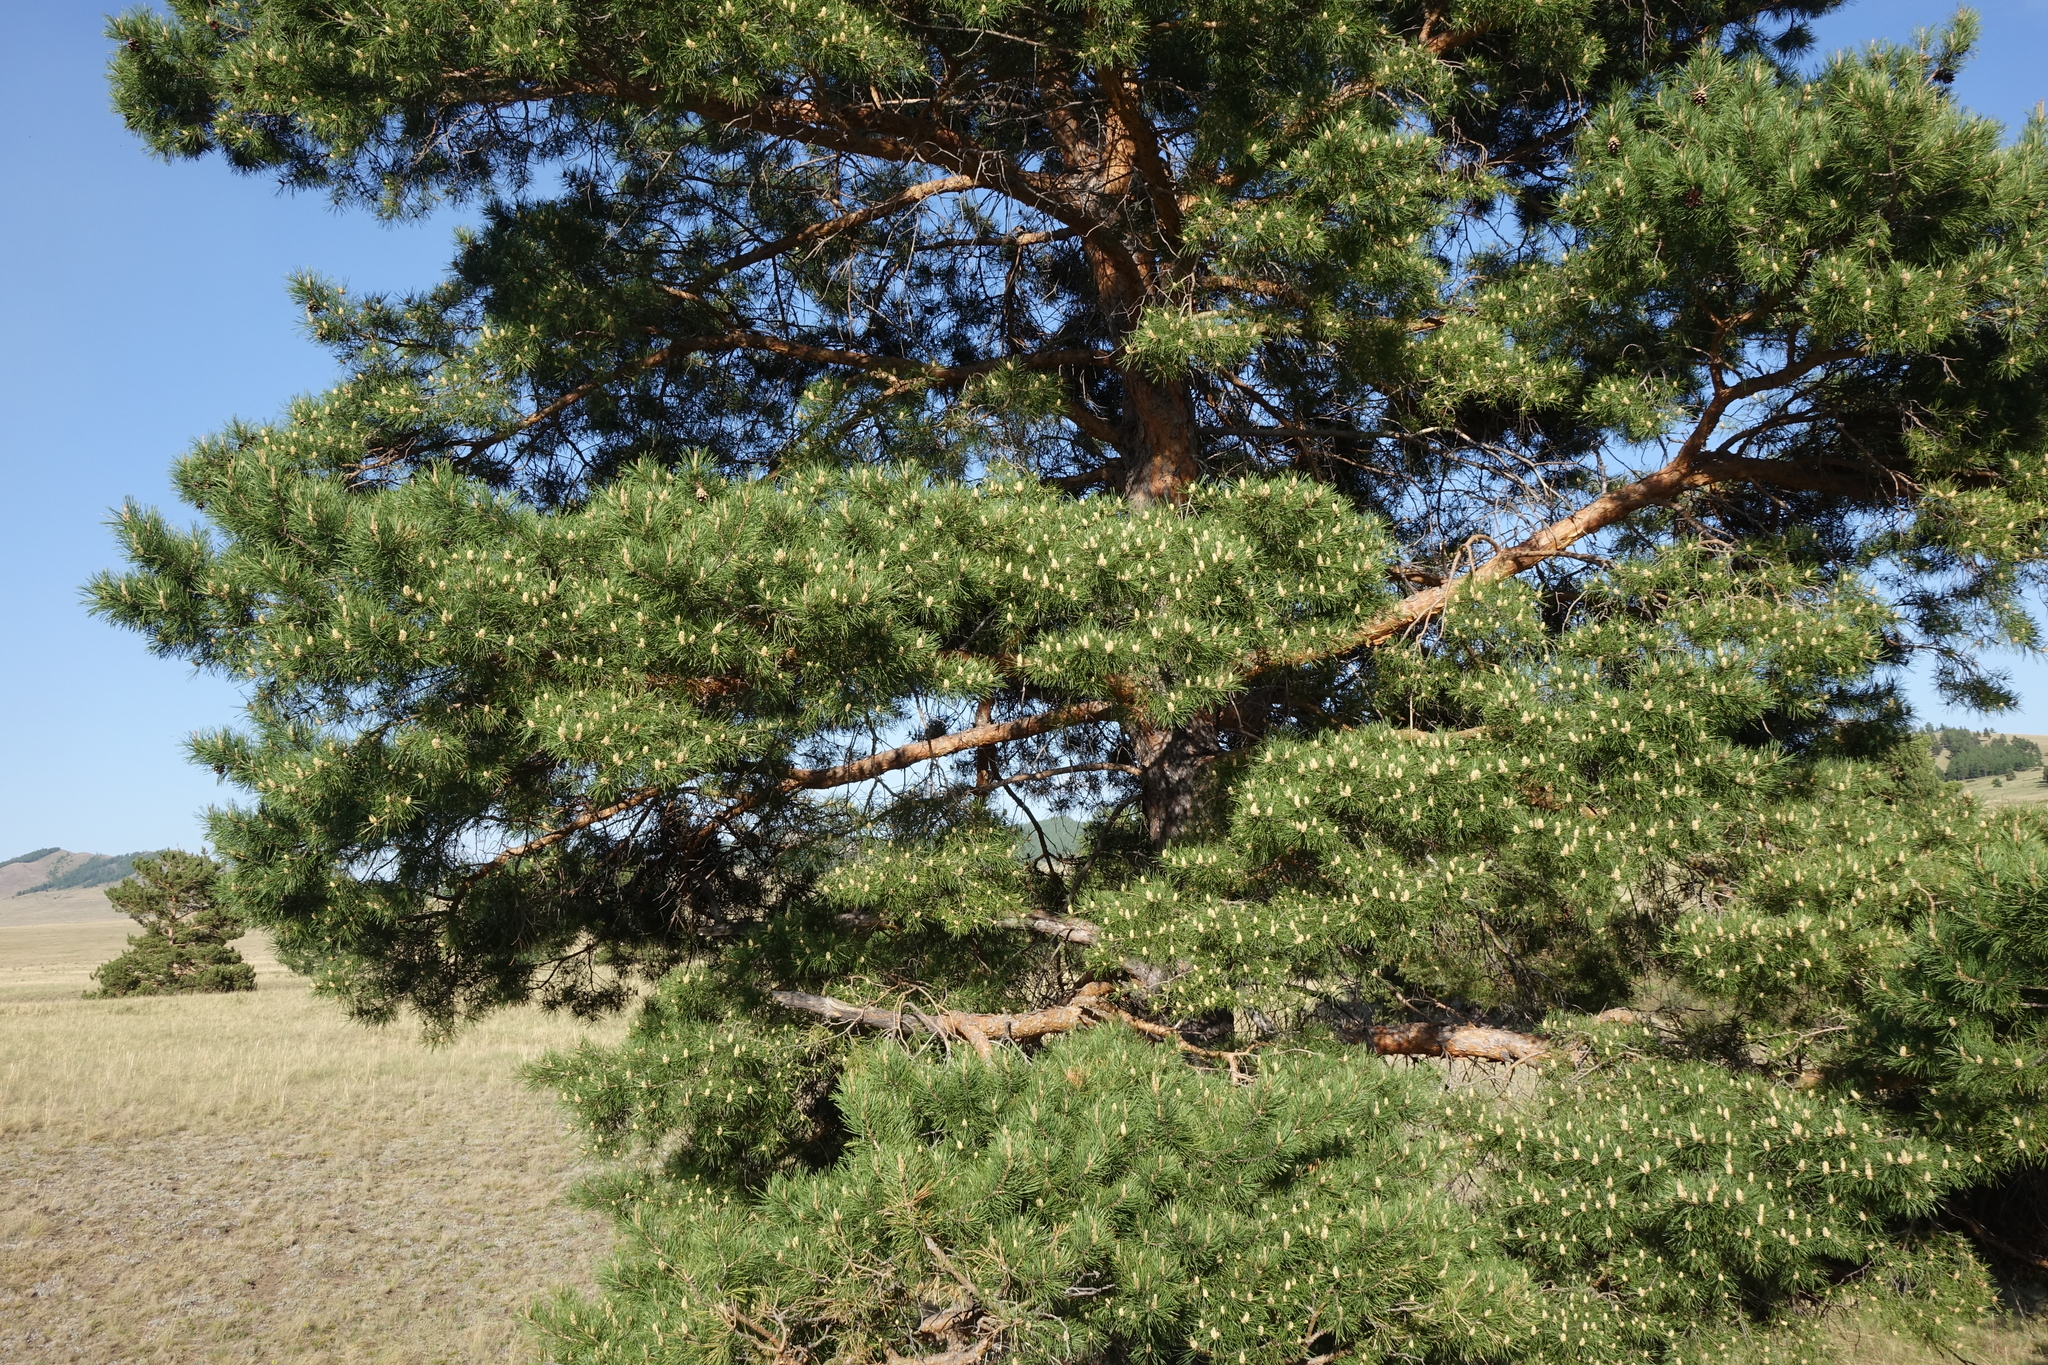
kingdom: Plantae
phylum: Tracheophyta
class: Pinopsida
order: Pinales
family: Pinaceae
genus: Pinus
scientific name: Pinus sylvestris
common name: Scots pine
